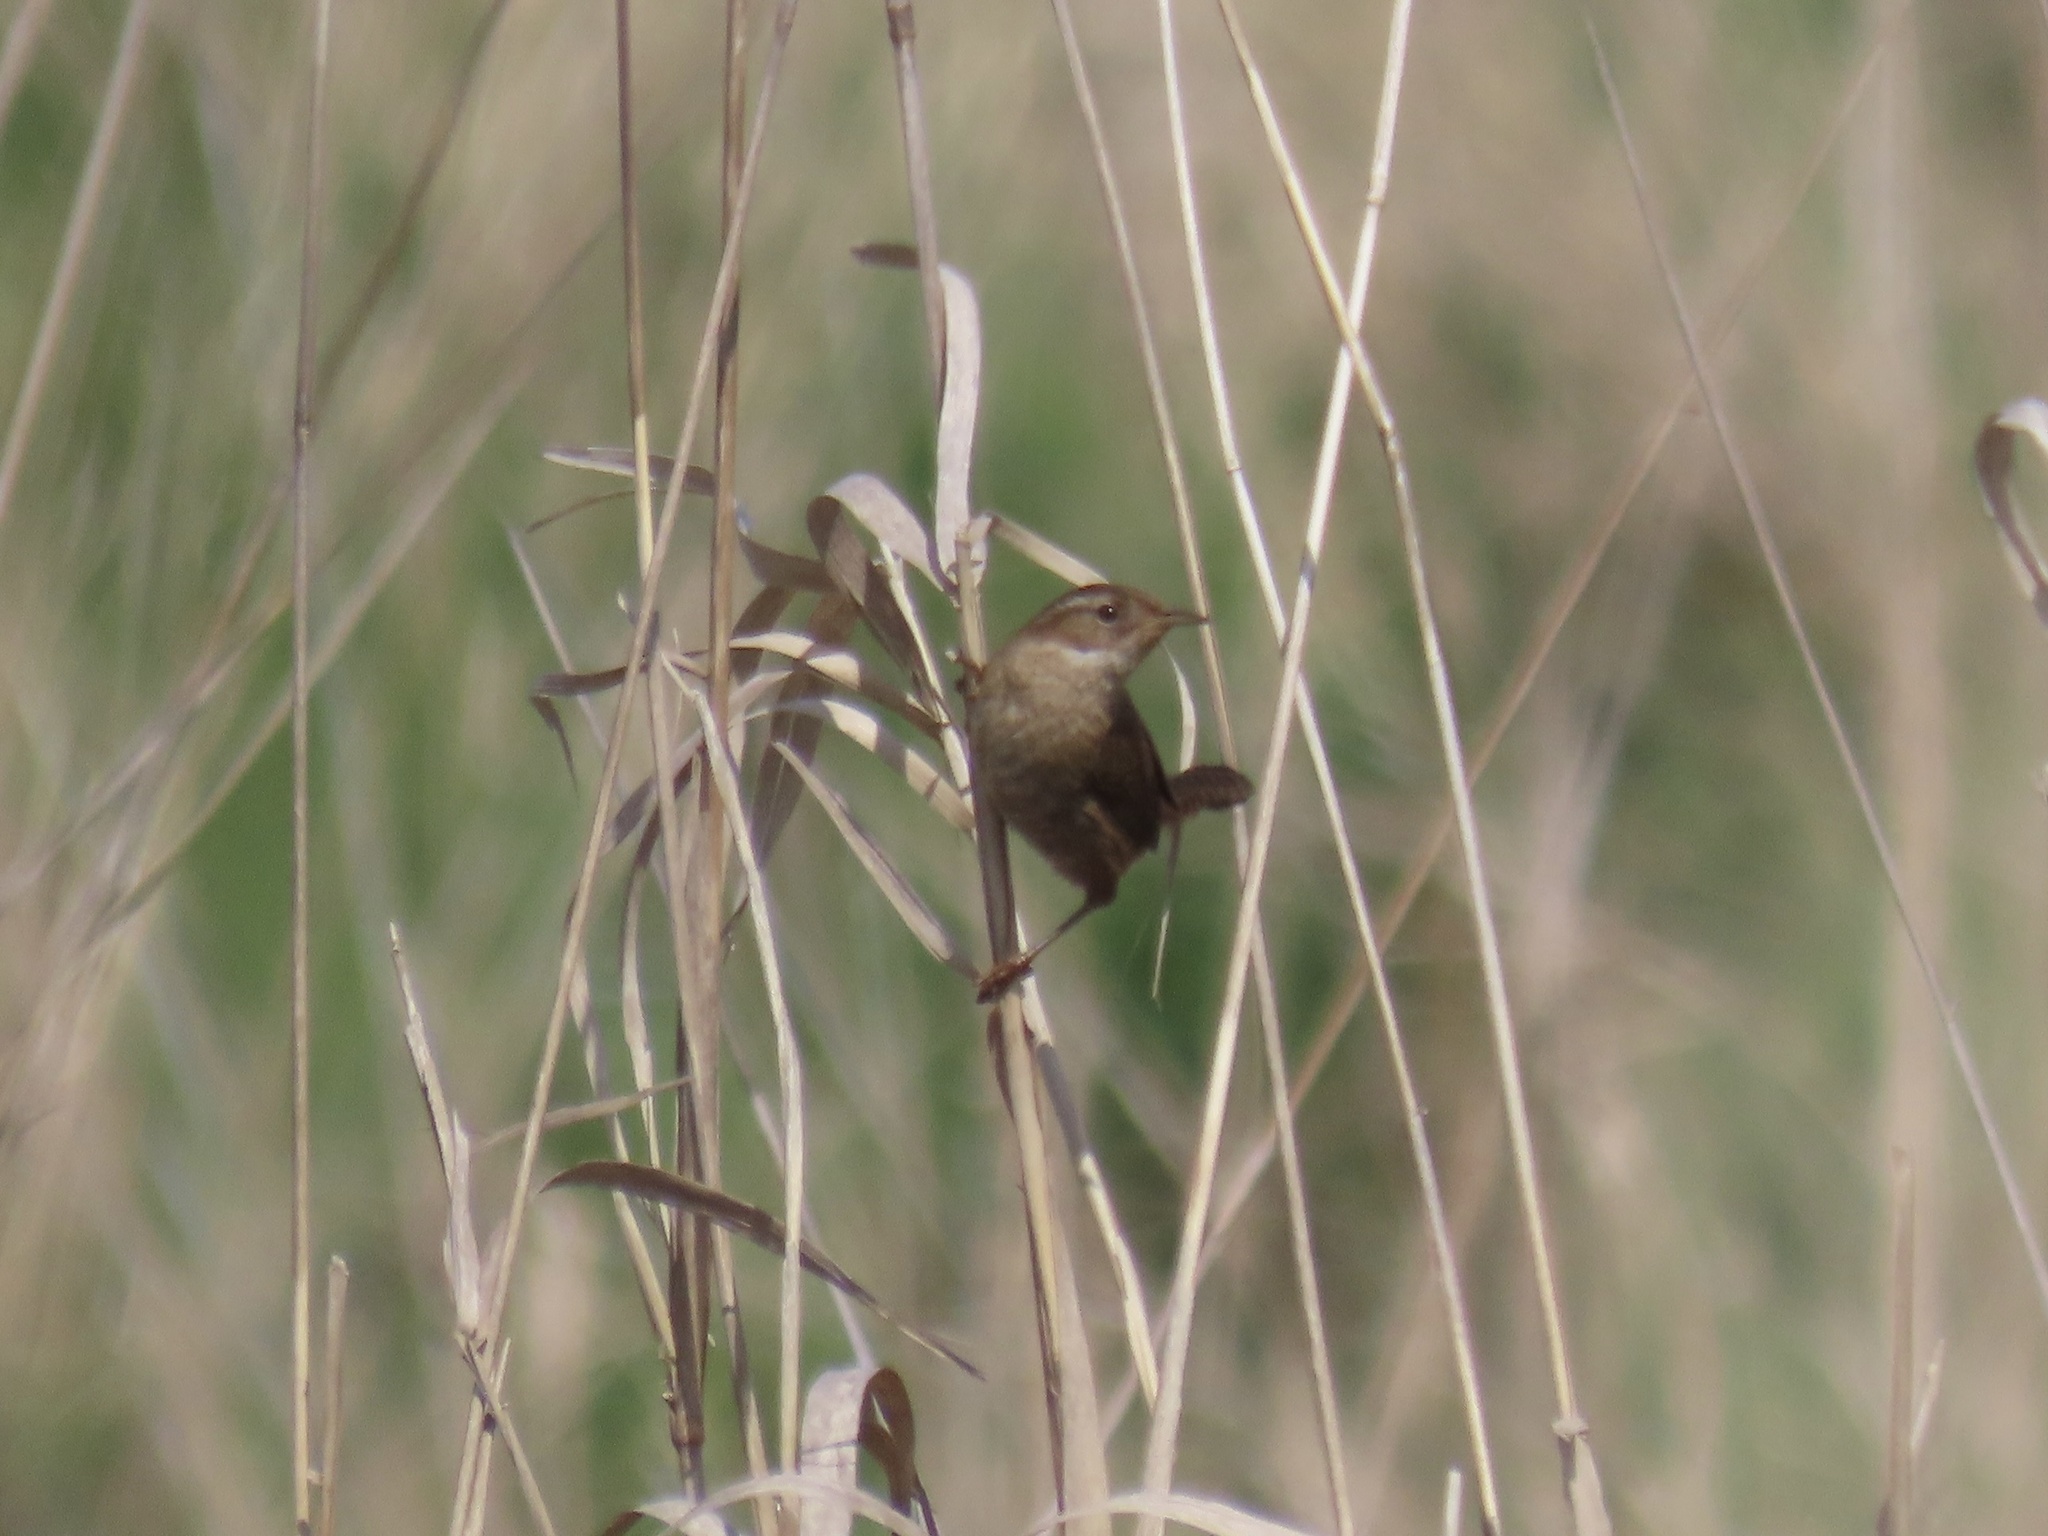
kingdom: Animalia
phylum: Chordata
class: Aves
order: Passeriformes
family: Troglodytidae
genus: Cistothorus
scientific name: Cistothorus palustris
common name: Marsh wren
